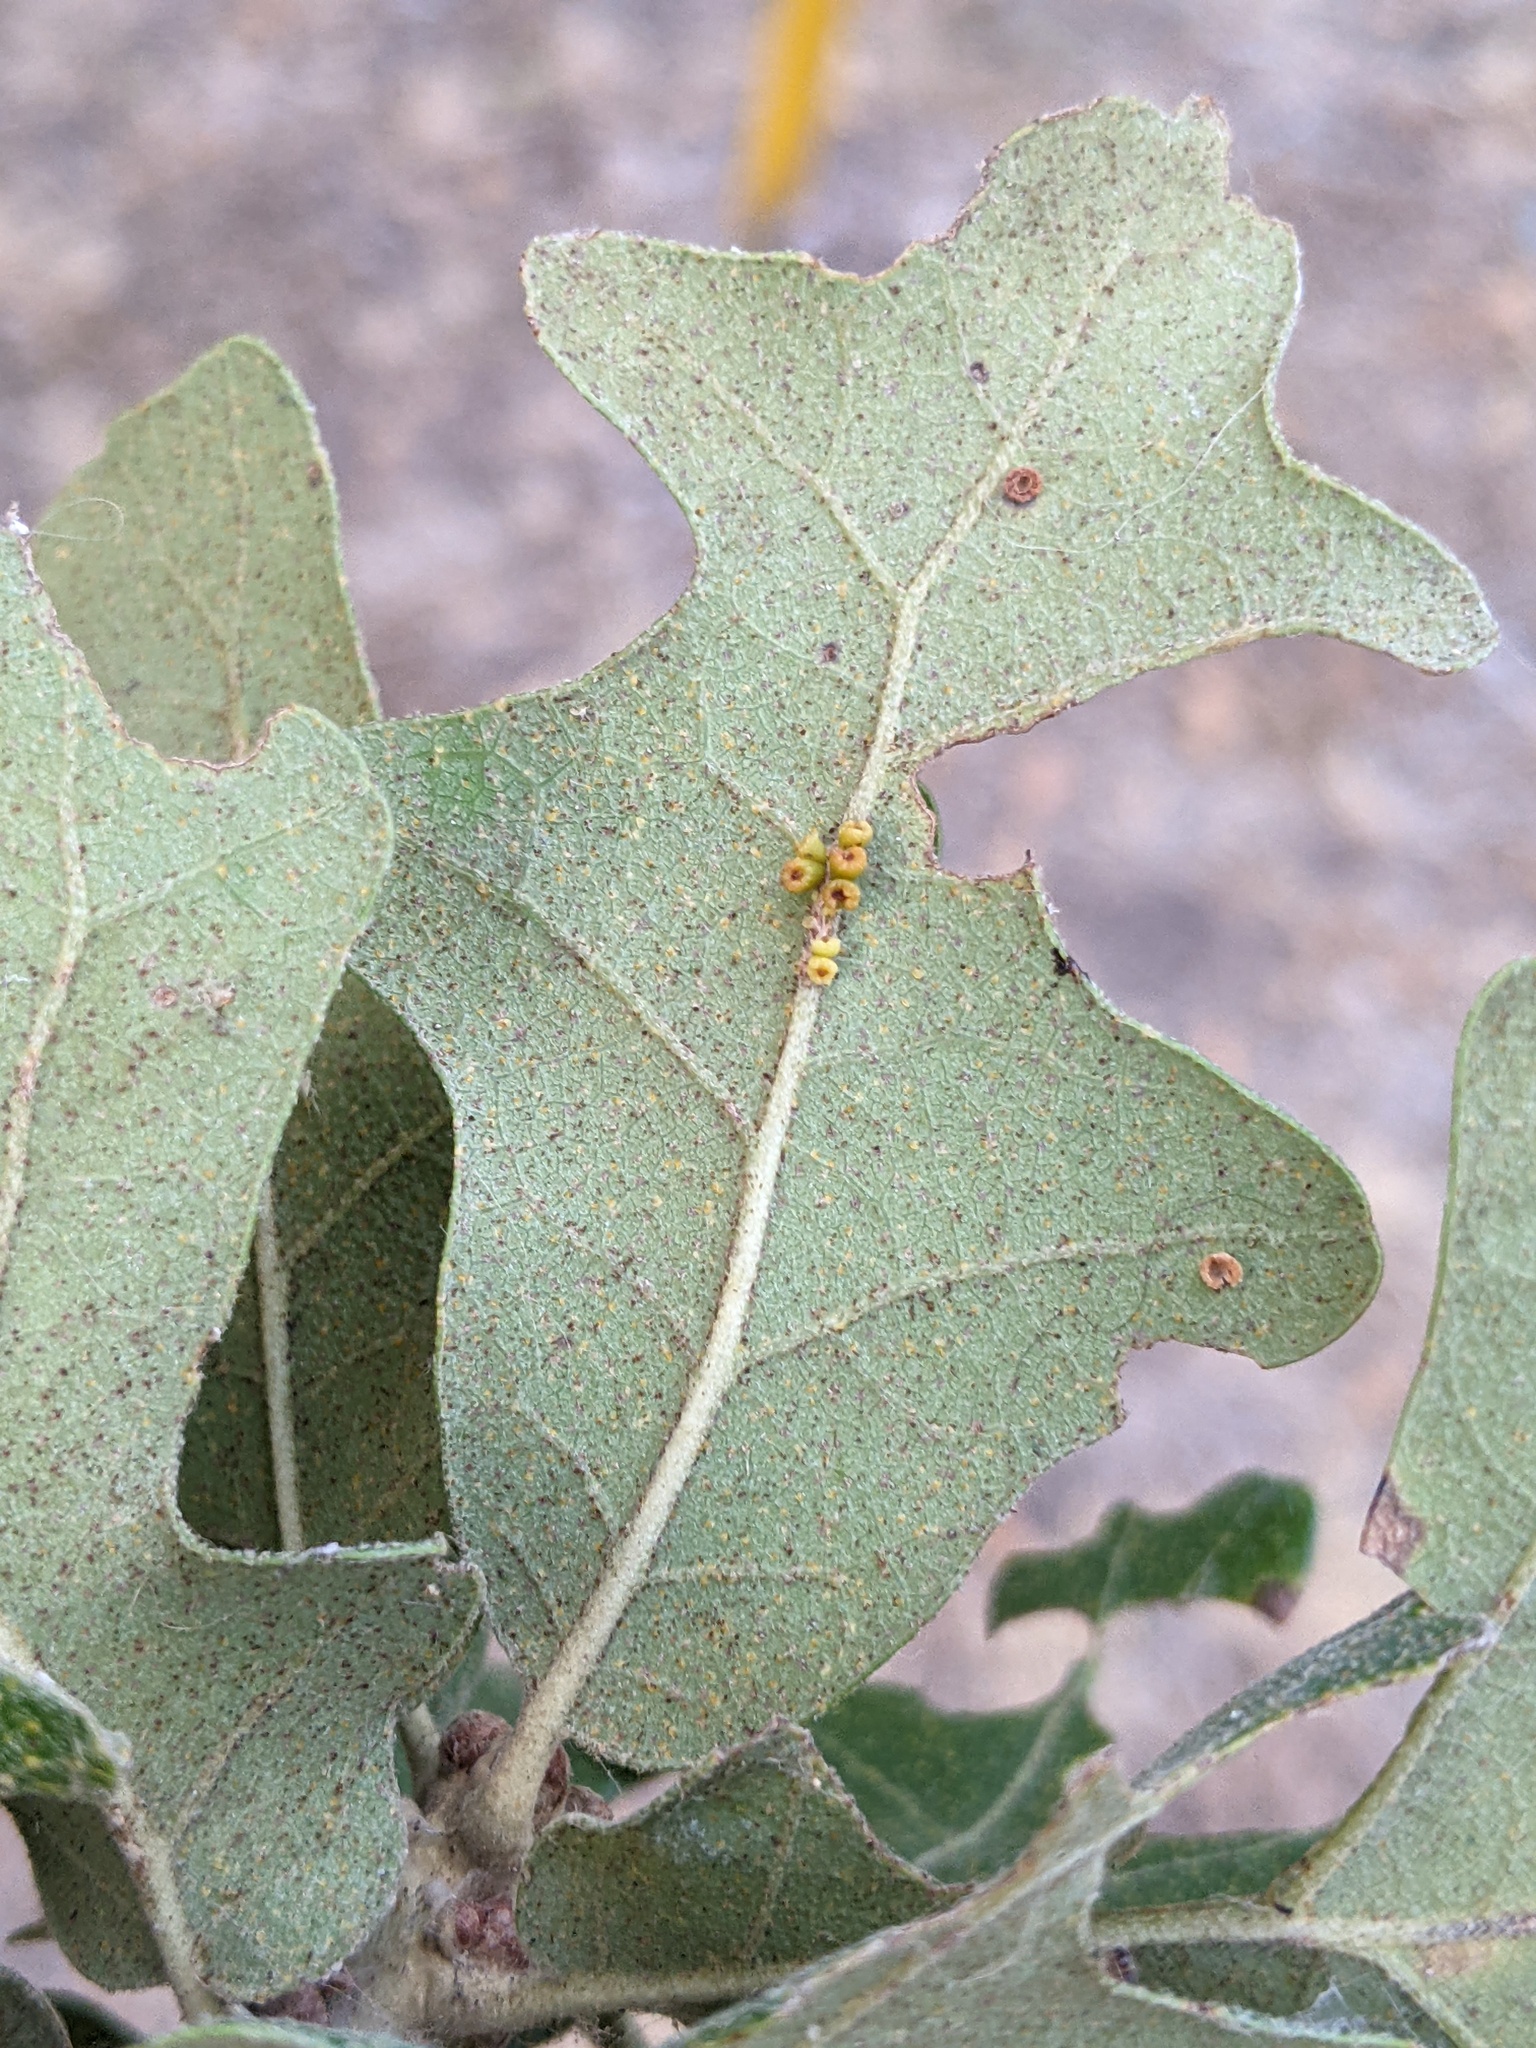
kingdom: Animalia
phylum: Arthropoda
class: Insecta
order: Hymenoptera
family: Cynipidae
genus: Andricus
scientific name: Andricus lustrans
